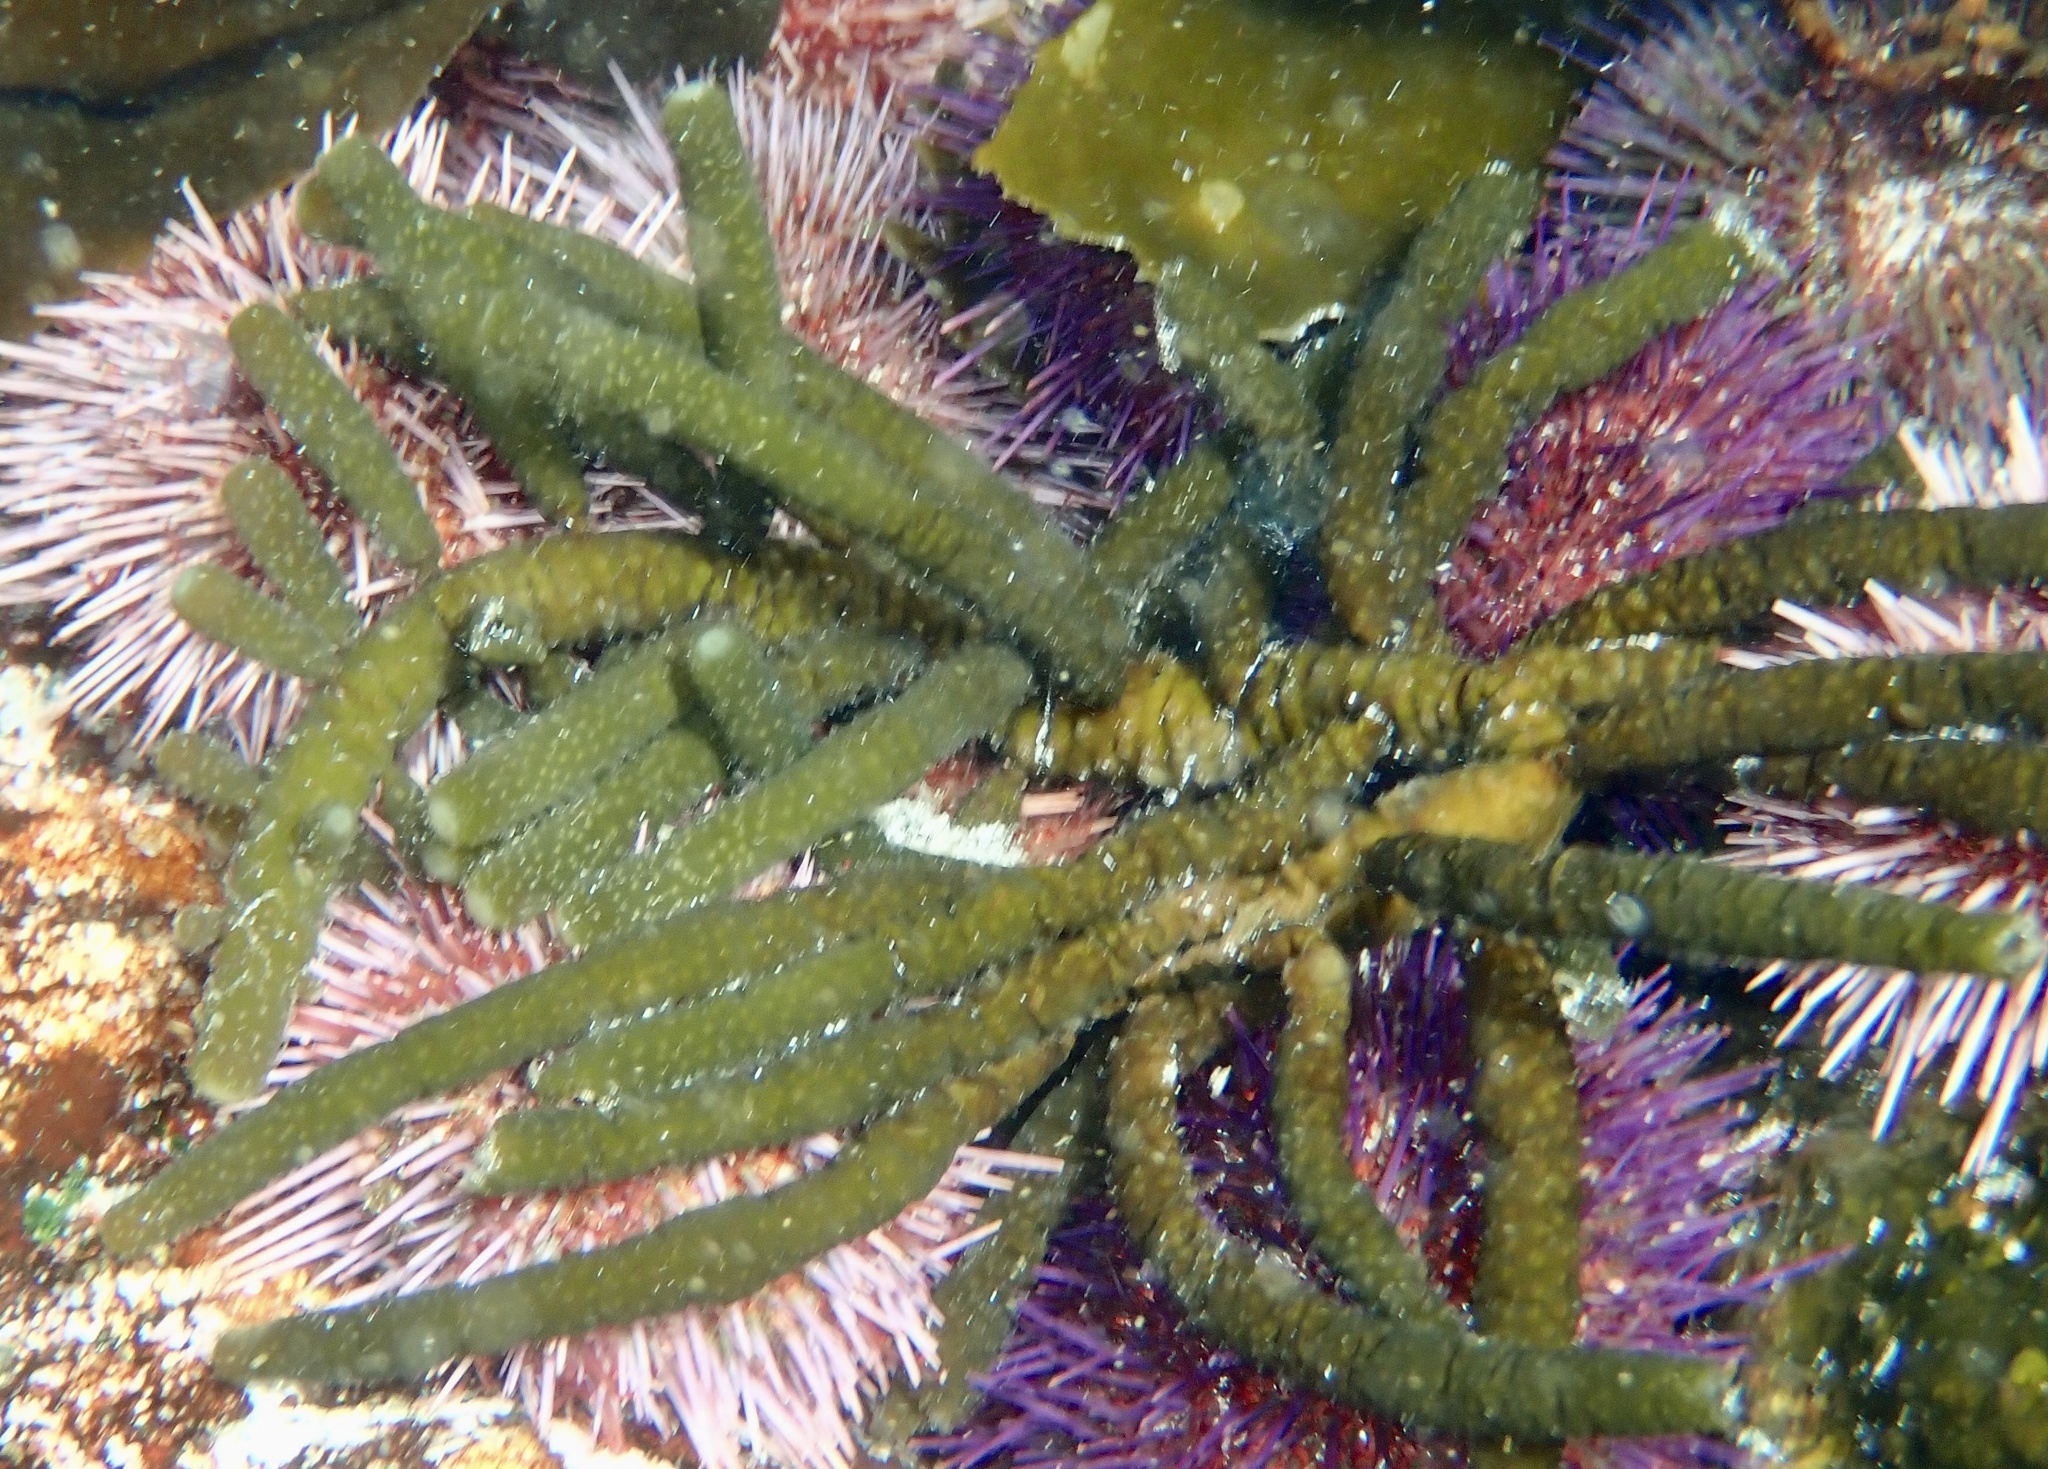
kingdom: Chromista
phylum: Ochrophyta
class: Phaeophyceae
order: Scytothamnales
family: Splachnidiaceae
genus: Splachnidium
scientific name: Splachnidium rugosum
